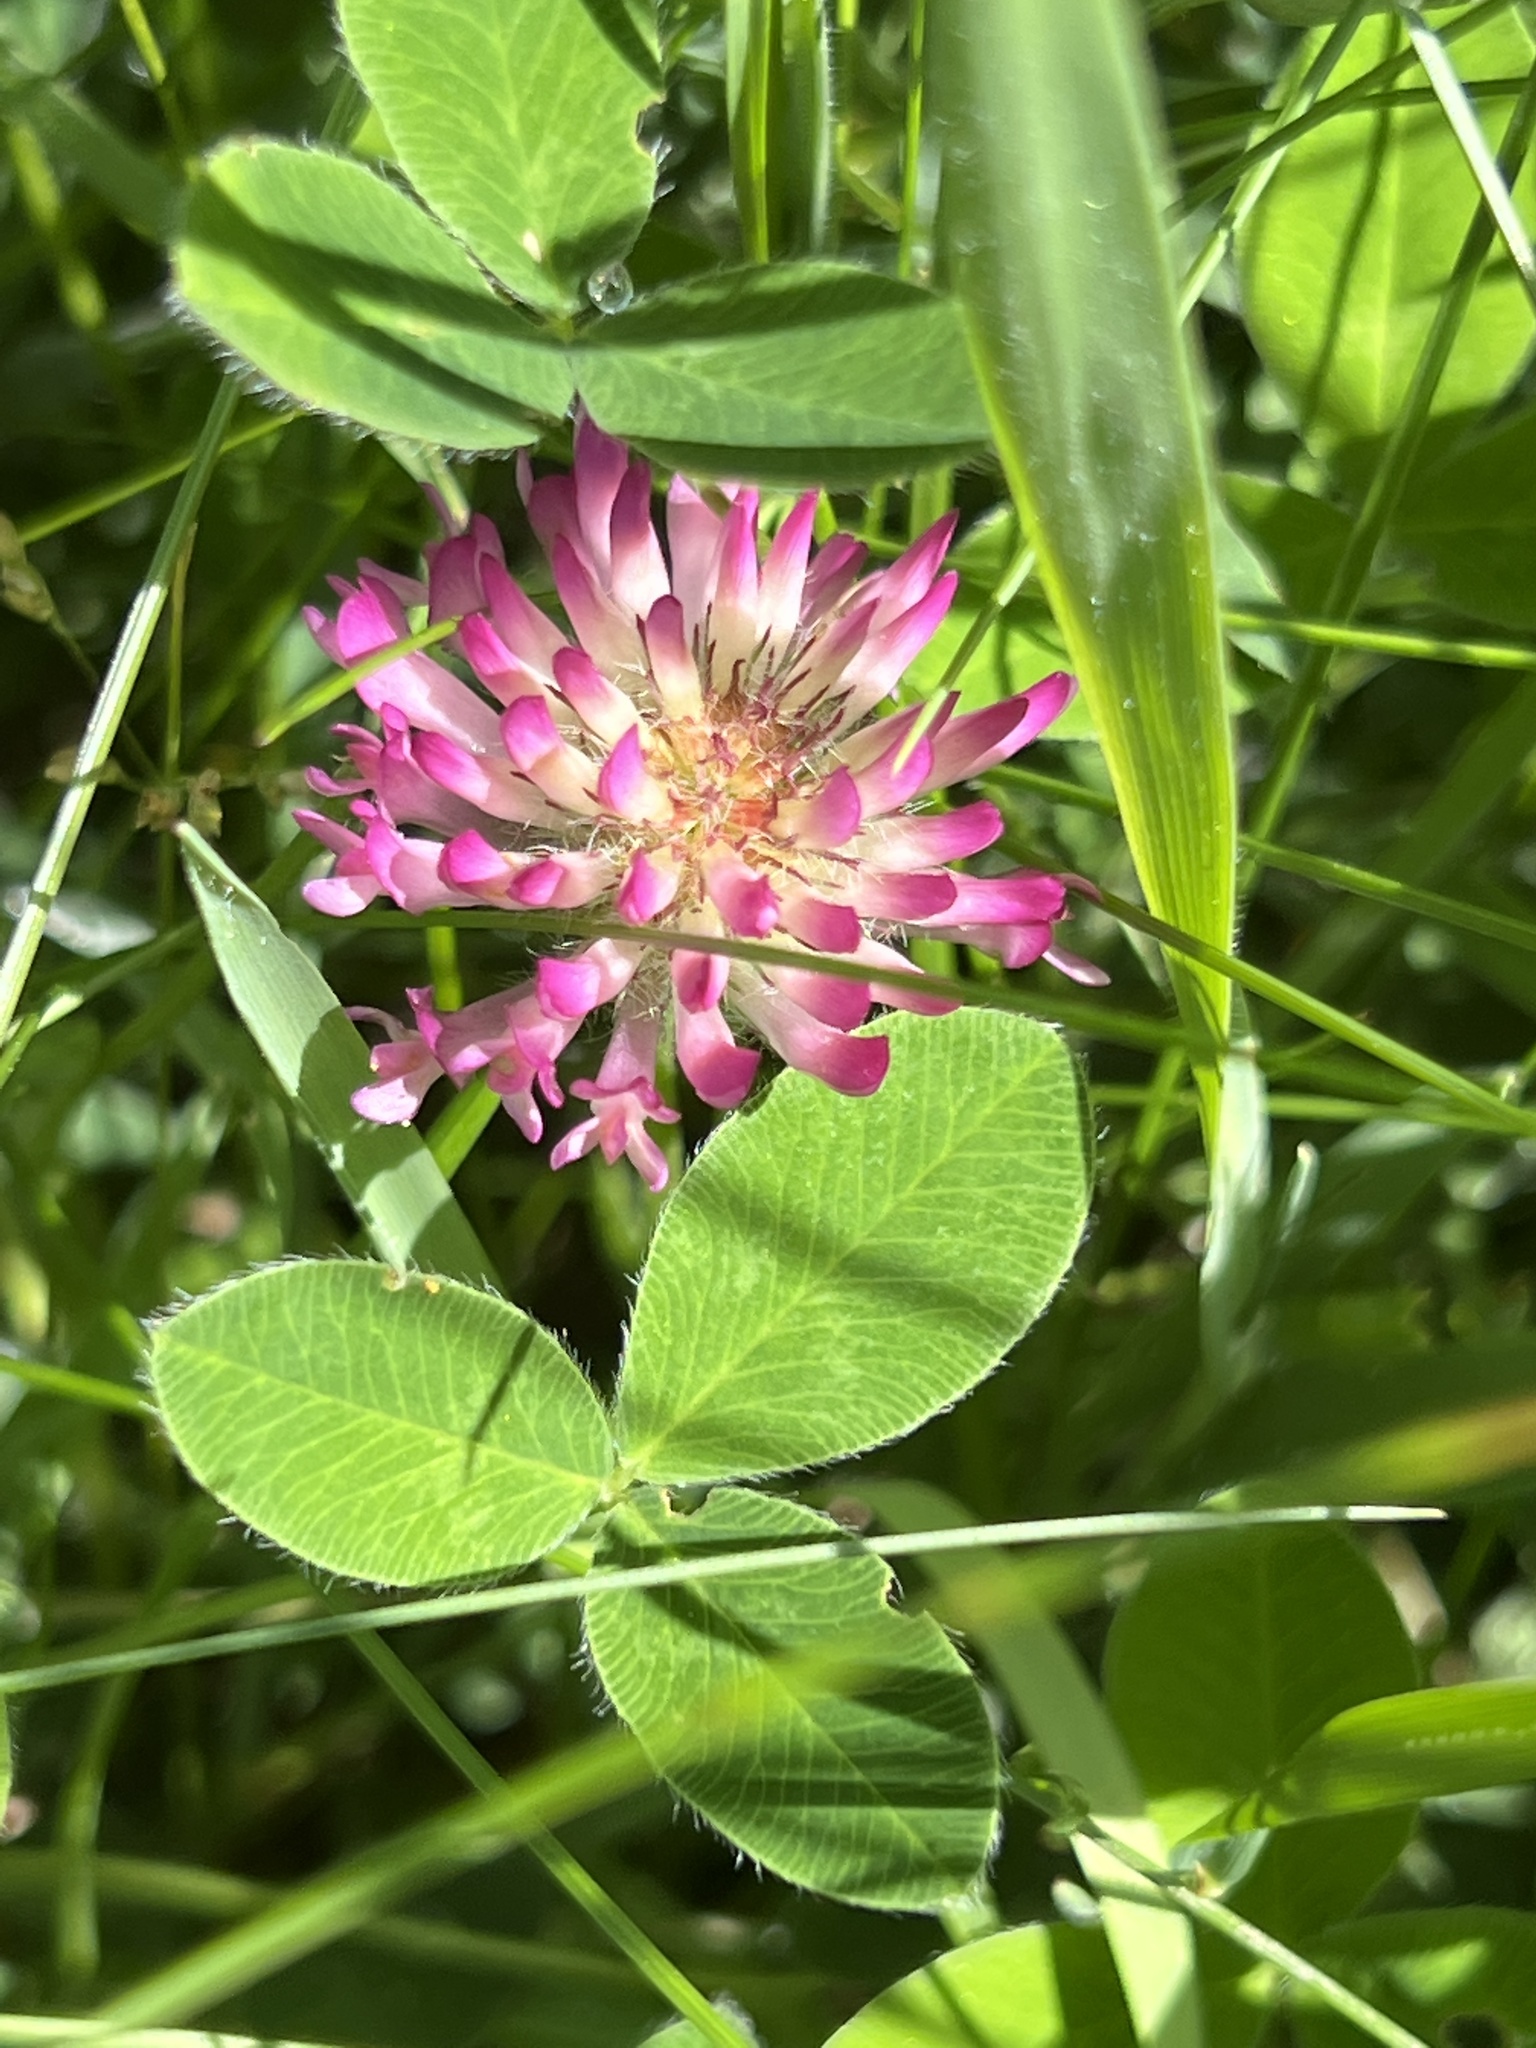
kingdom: Plantae
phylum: Tracheophyta
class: Magnoliopsida
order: Fabales
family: Fabaceae
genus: Trifolium
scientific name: Trifolium pratense
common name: Red clover
